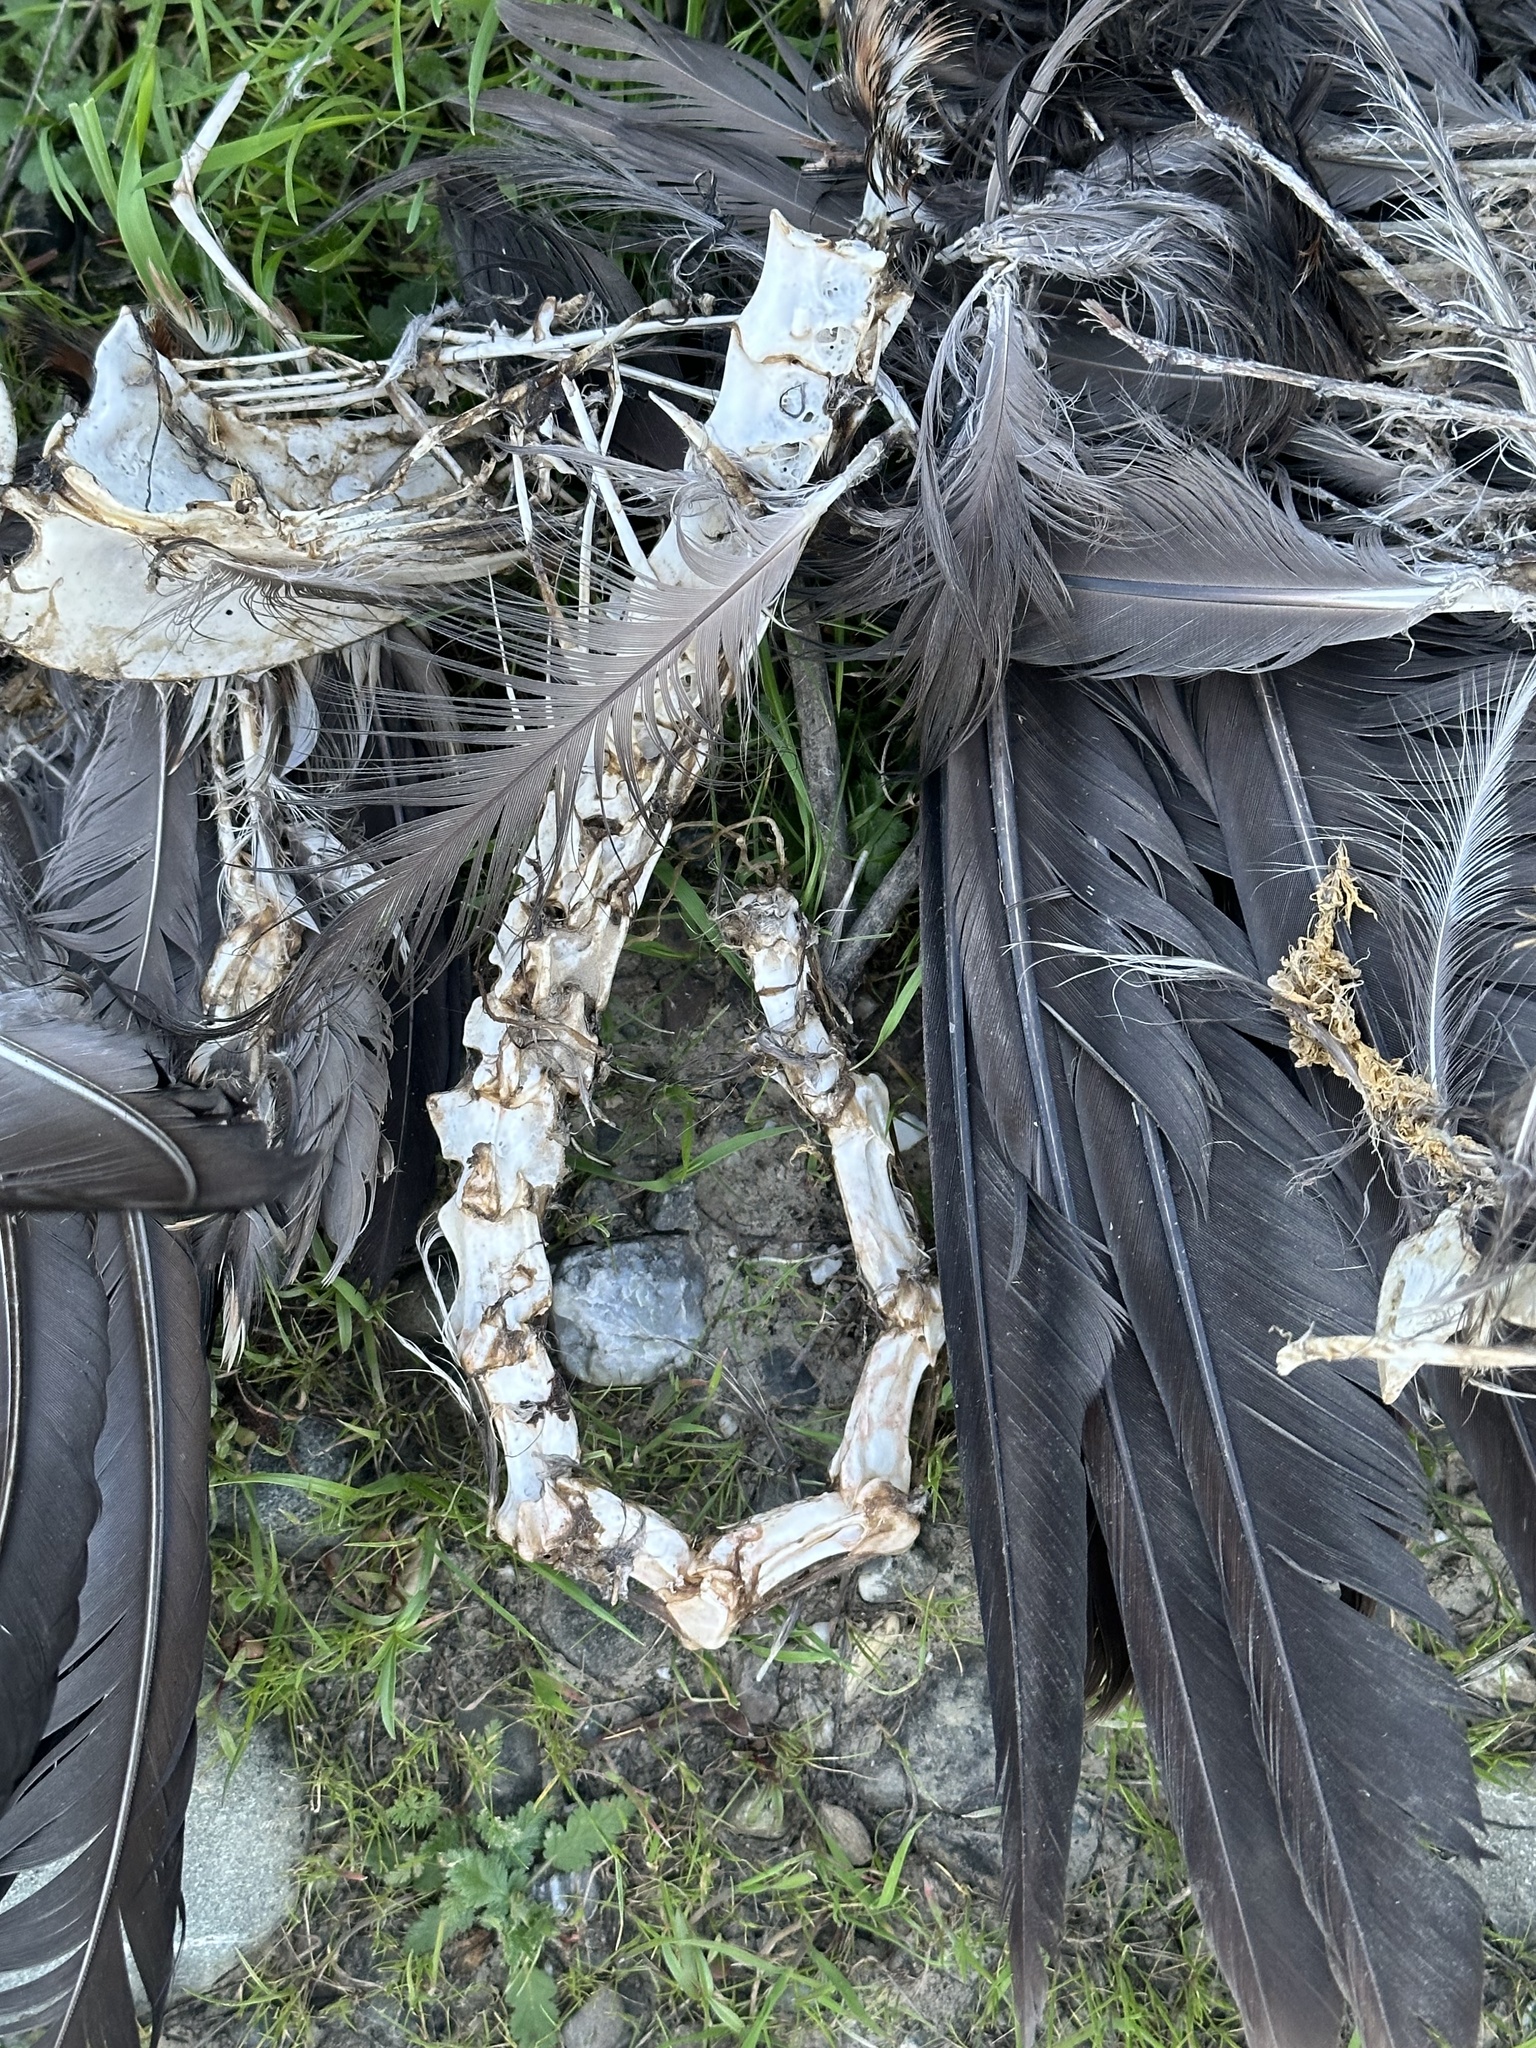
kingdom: Animalia
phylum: Chordata
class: Aves
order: Pelecaniformes
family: Ardeidae
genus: Ardea
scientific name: Ardea herodias
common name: Great blue heron
